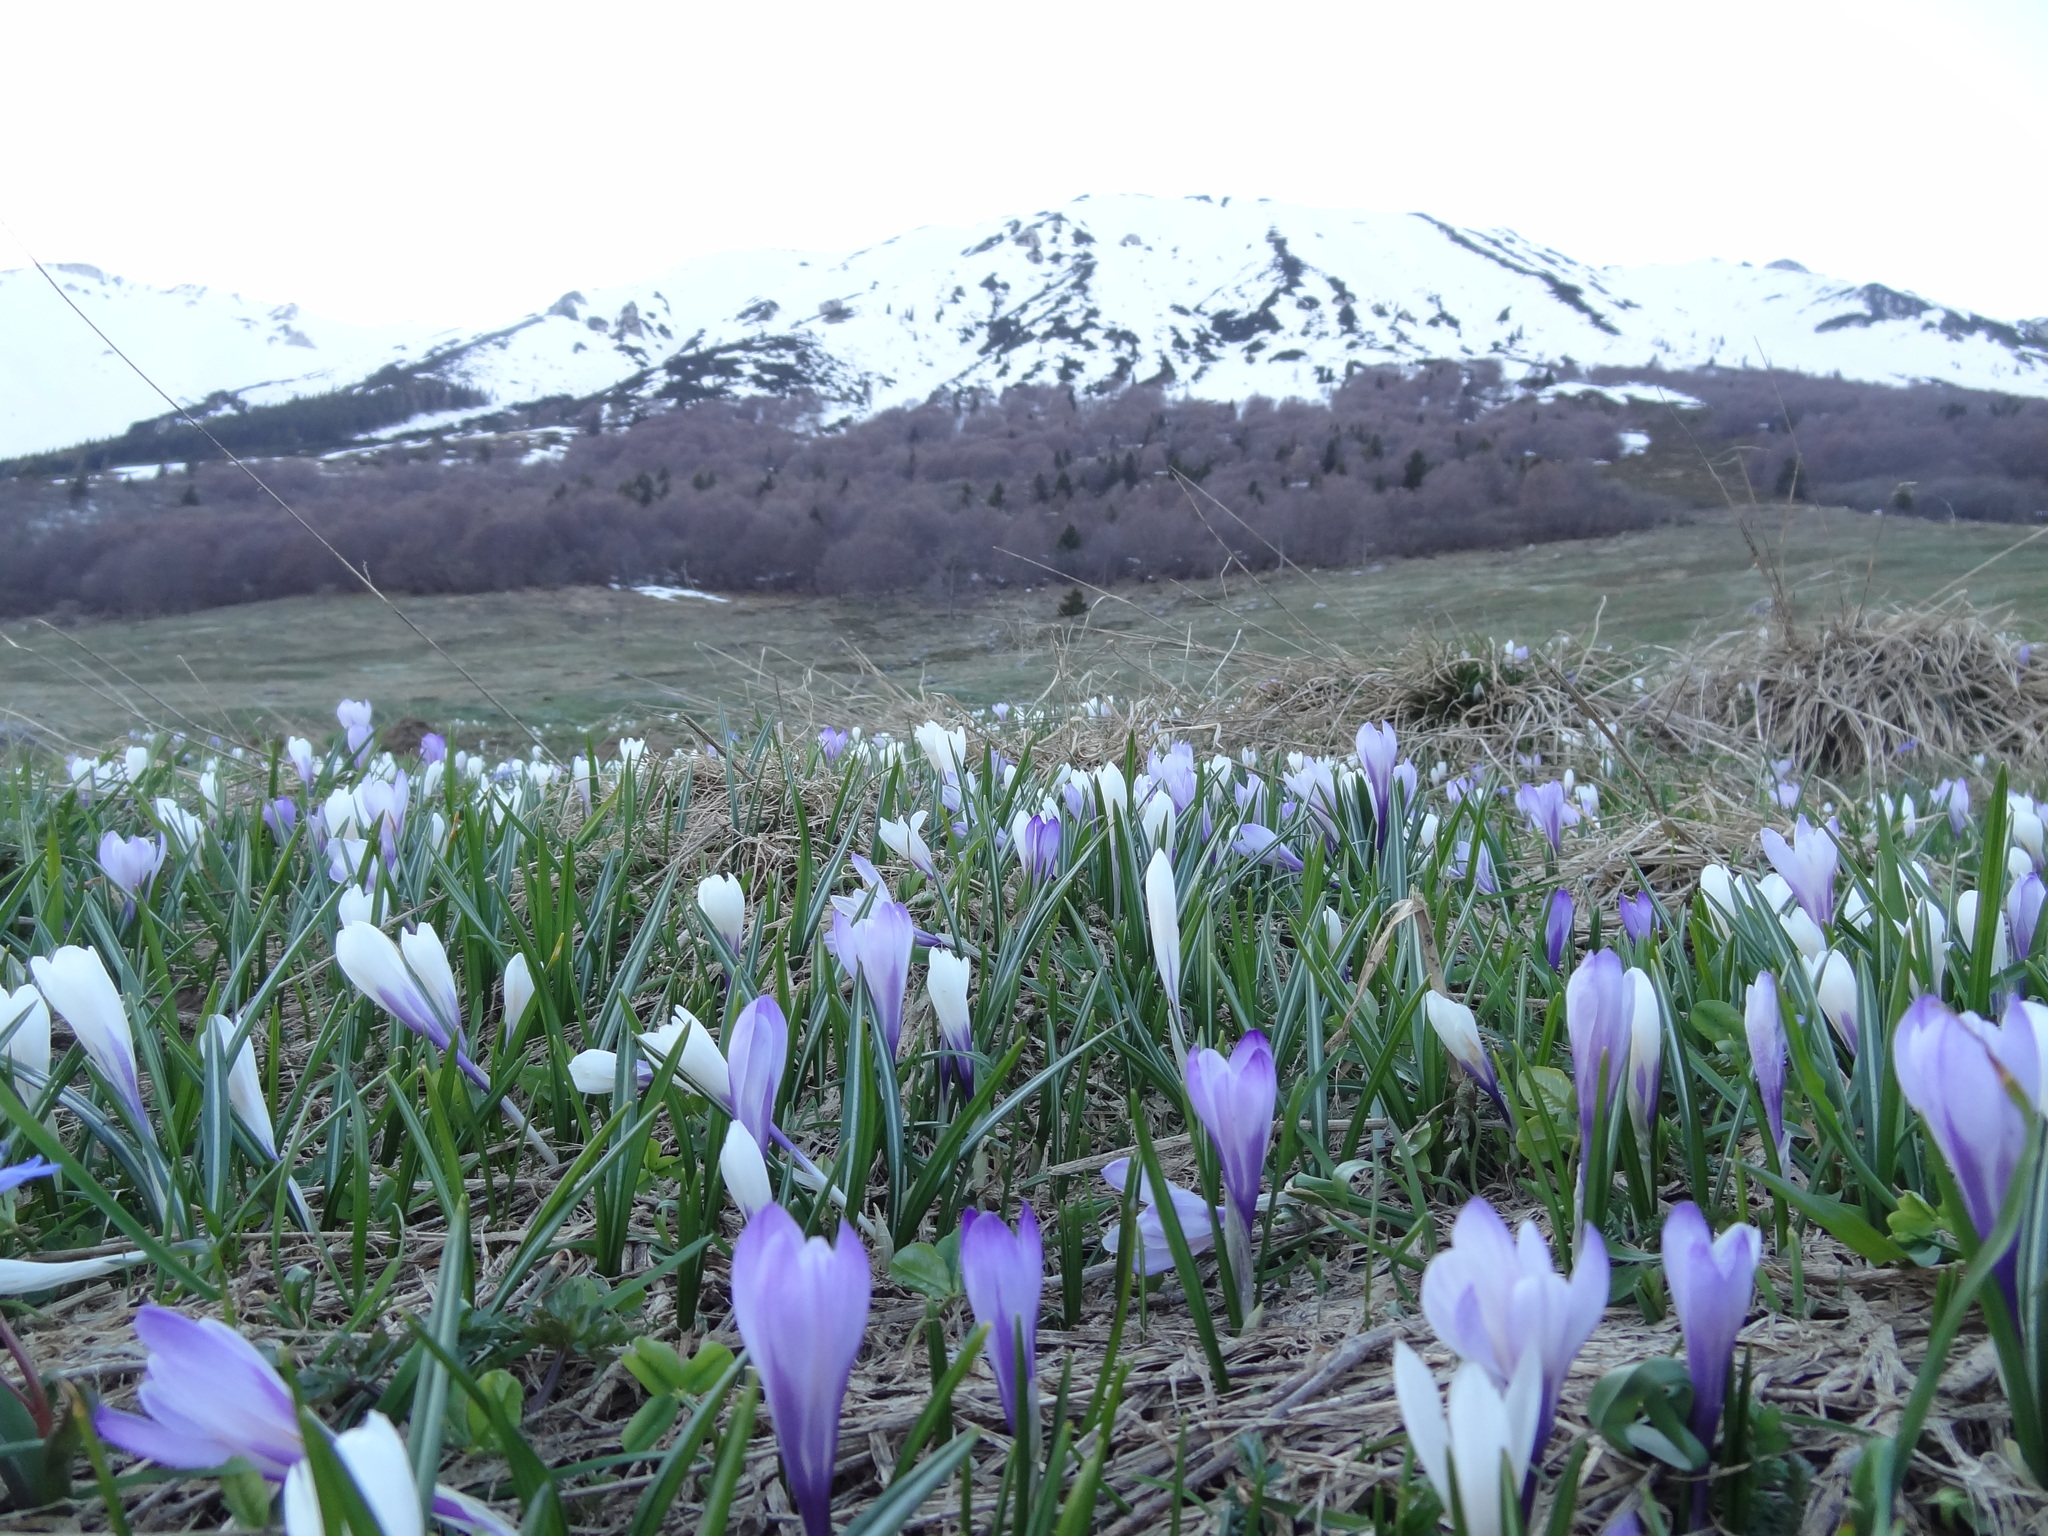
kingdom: Plantae
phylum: Tracheophyta
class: Liliopsida
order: Asparagales
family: Iridaceae
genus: Crocus
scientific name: Crocus vernus
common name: Spring crocus
